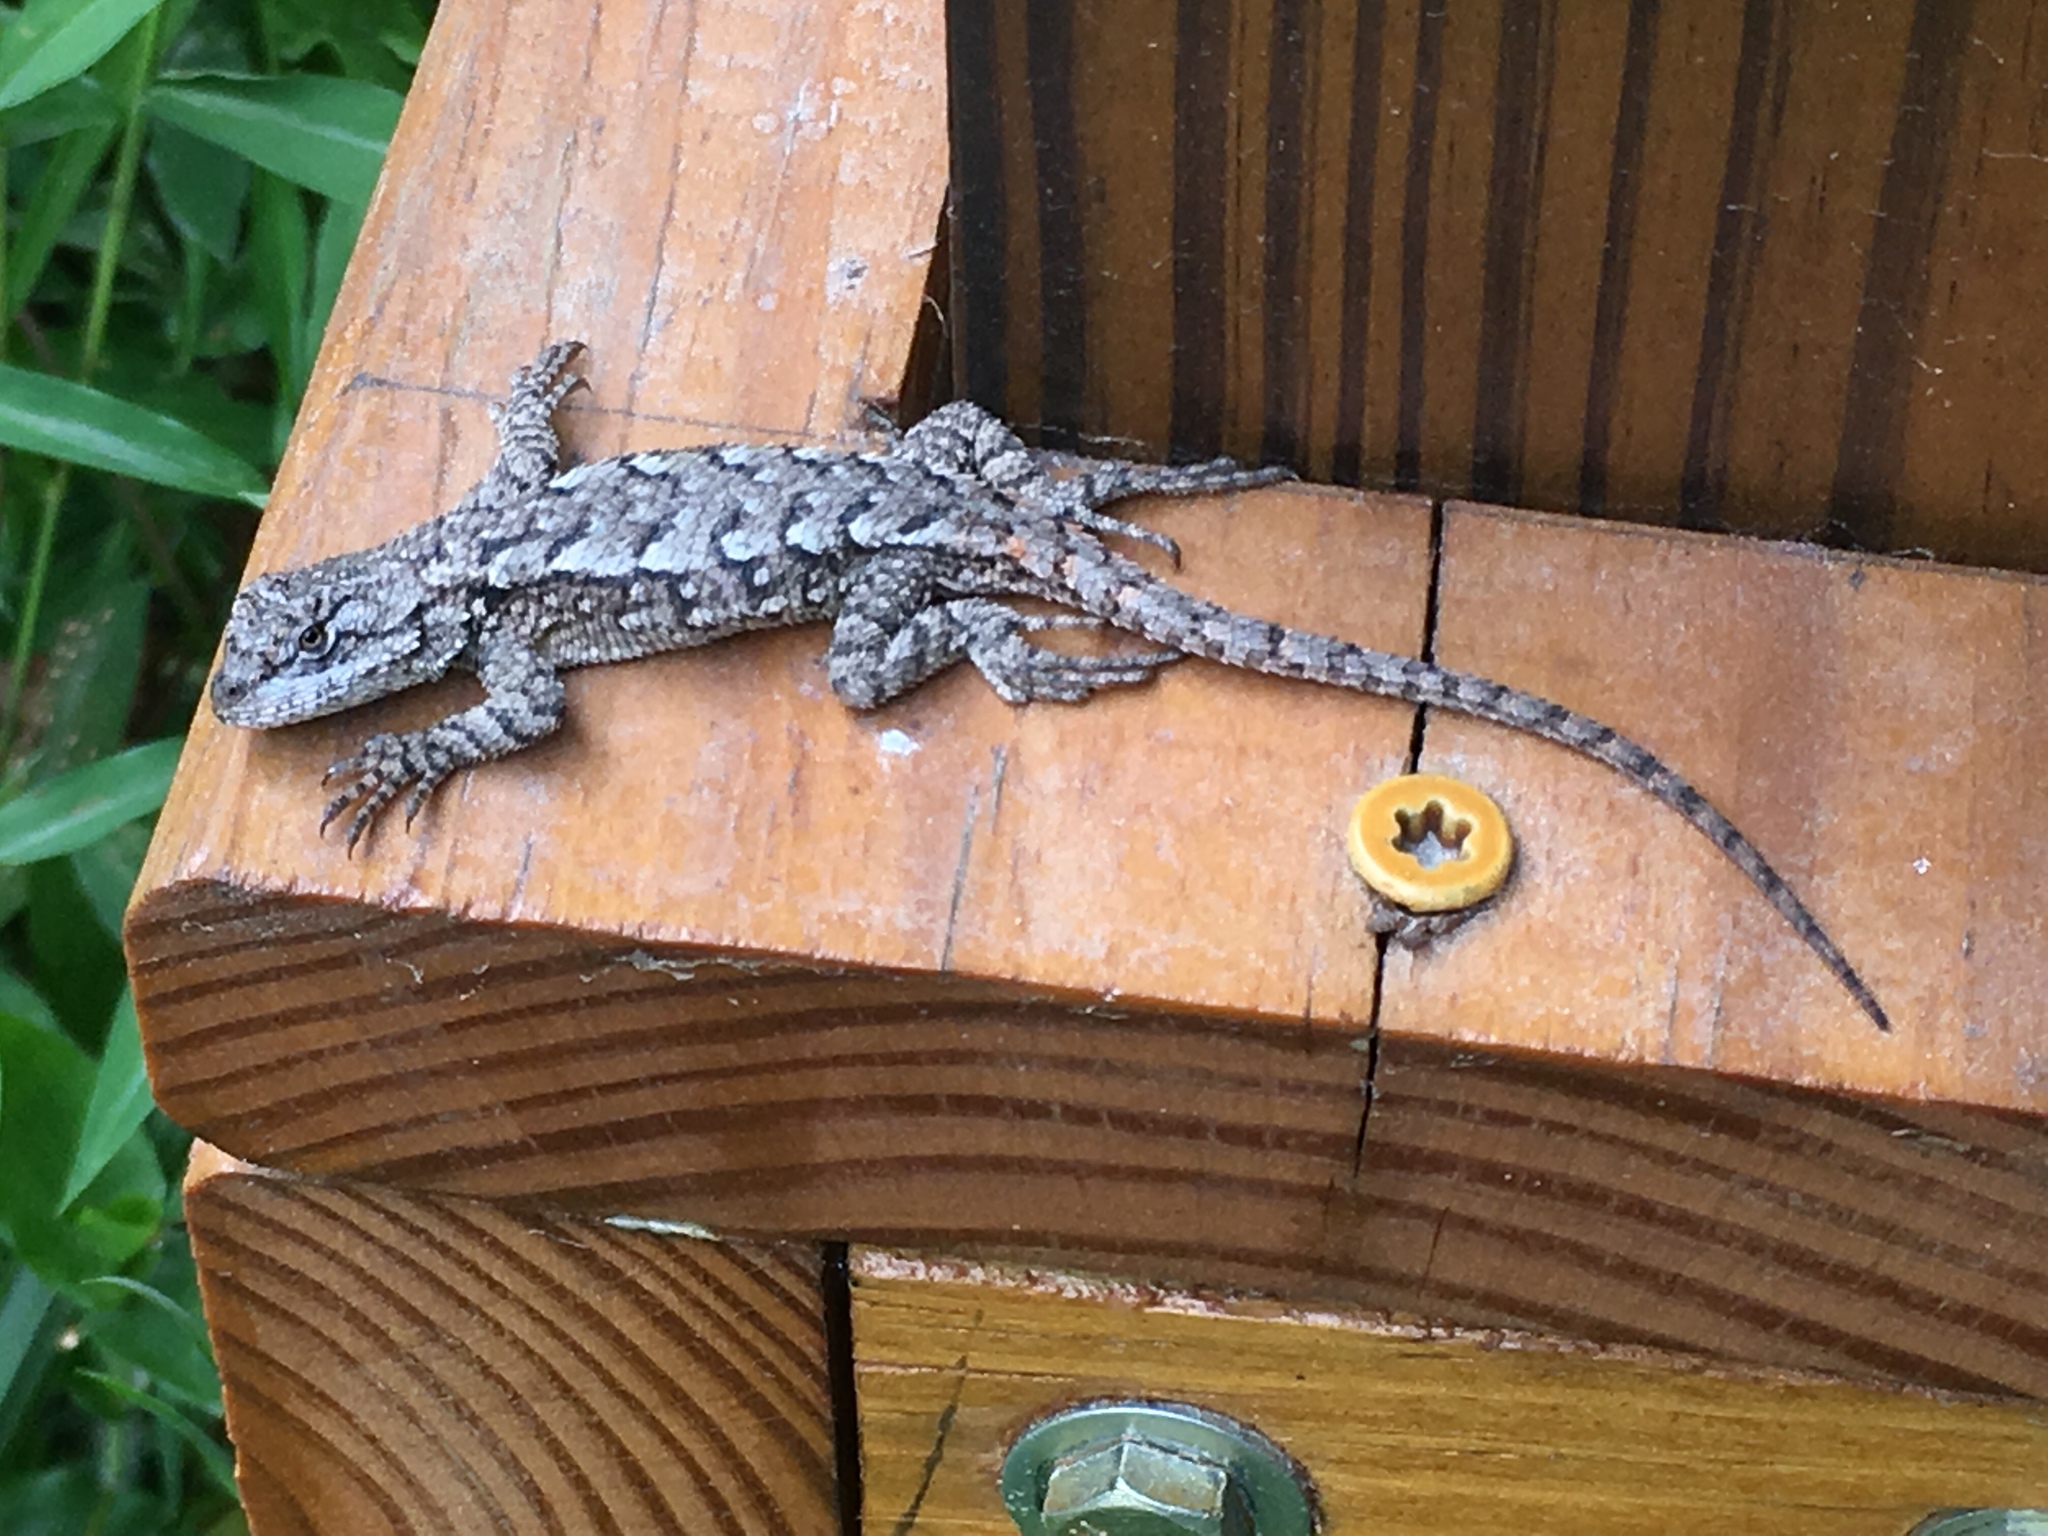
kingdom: Animalia
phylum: Chordata
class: Squamata
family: Phrynosomatidae
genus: Sceloporus
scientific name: Sceloporus undulatus
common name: Eastern fence lizard
